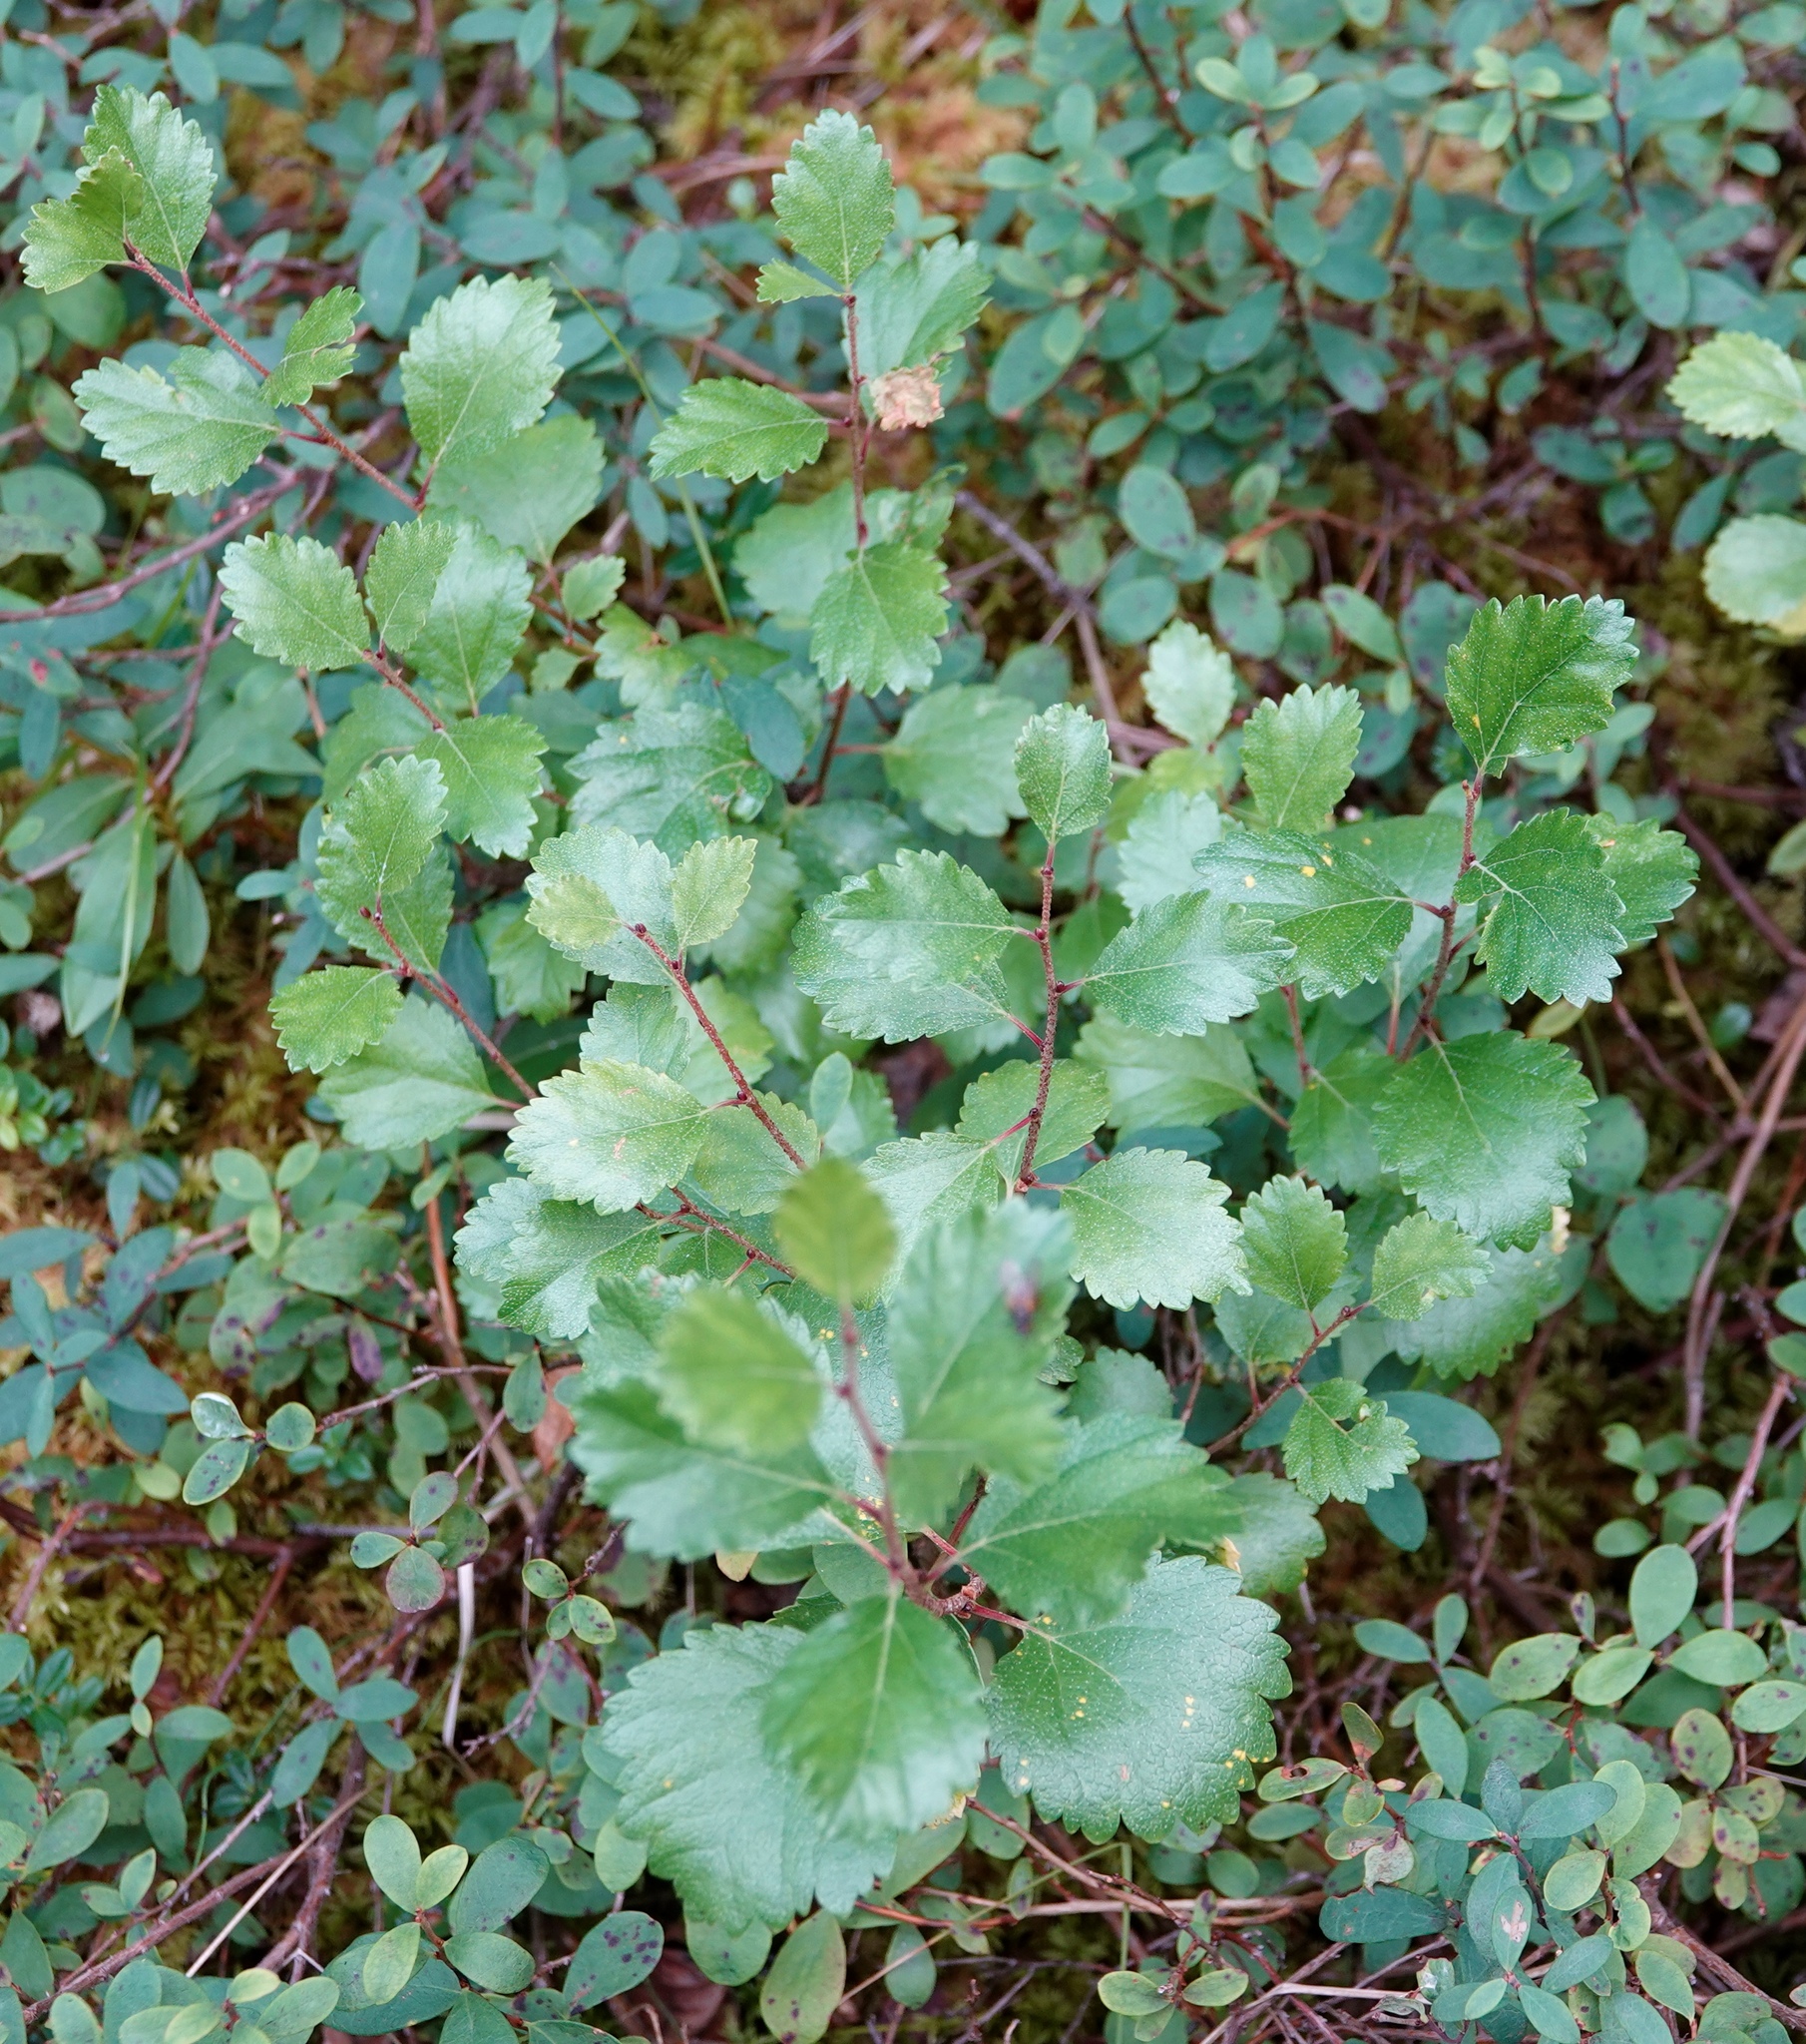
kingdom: Plantae
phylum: Tracheophyta
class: Magnoliopsida
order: Fagales
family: Betulaceae
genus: Betula
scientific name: Betula nana
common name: Arctic dwarf birch
